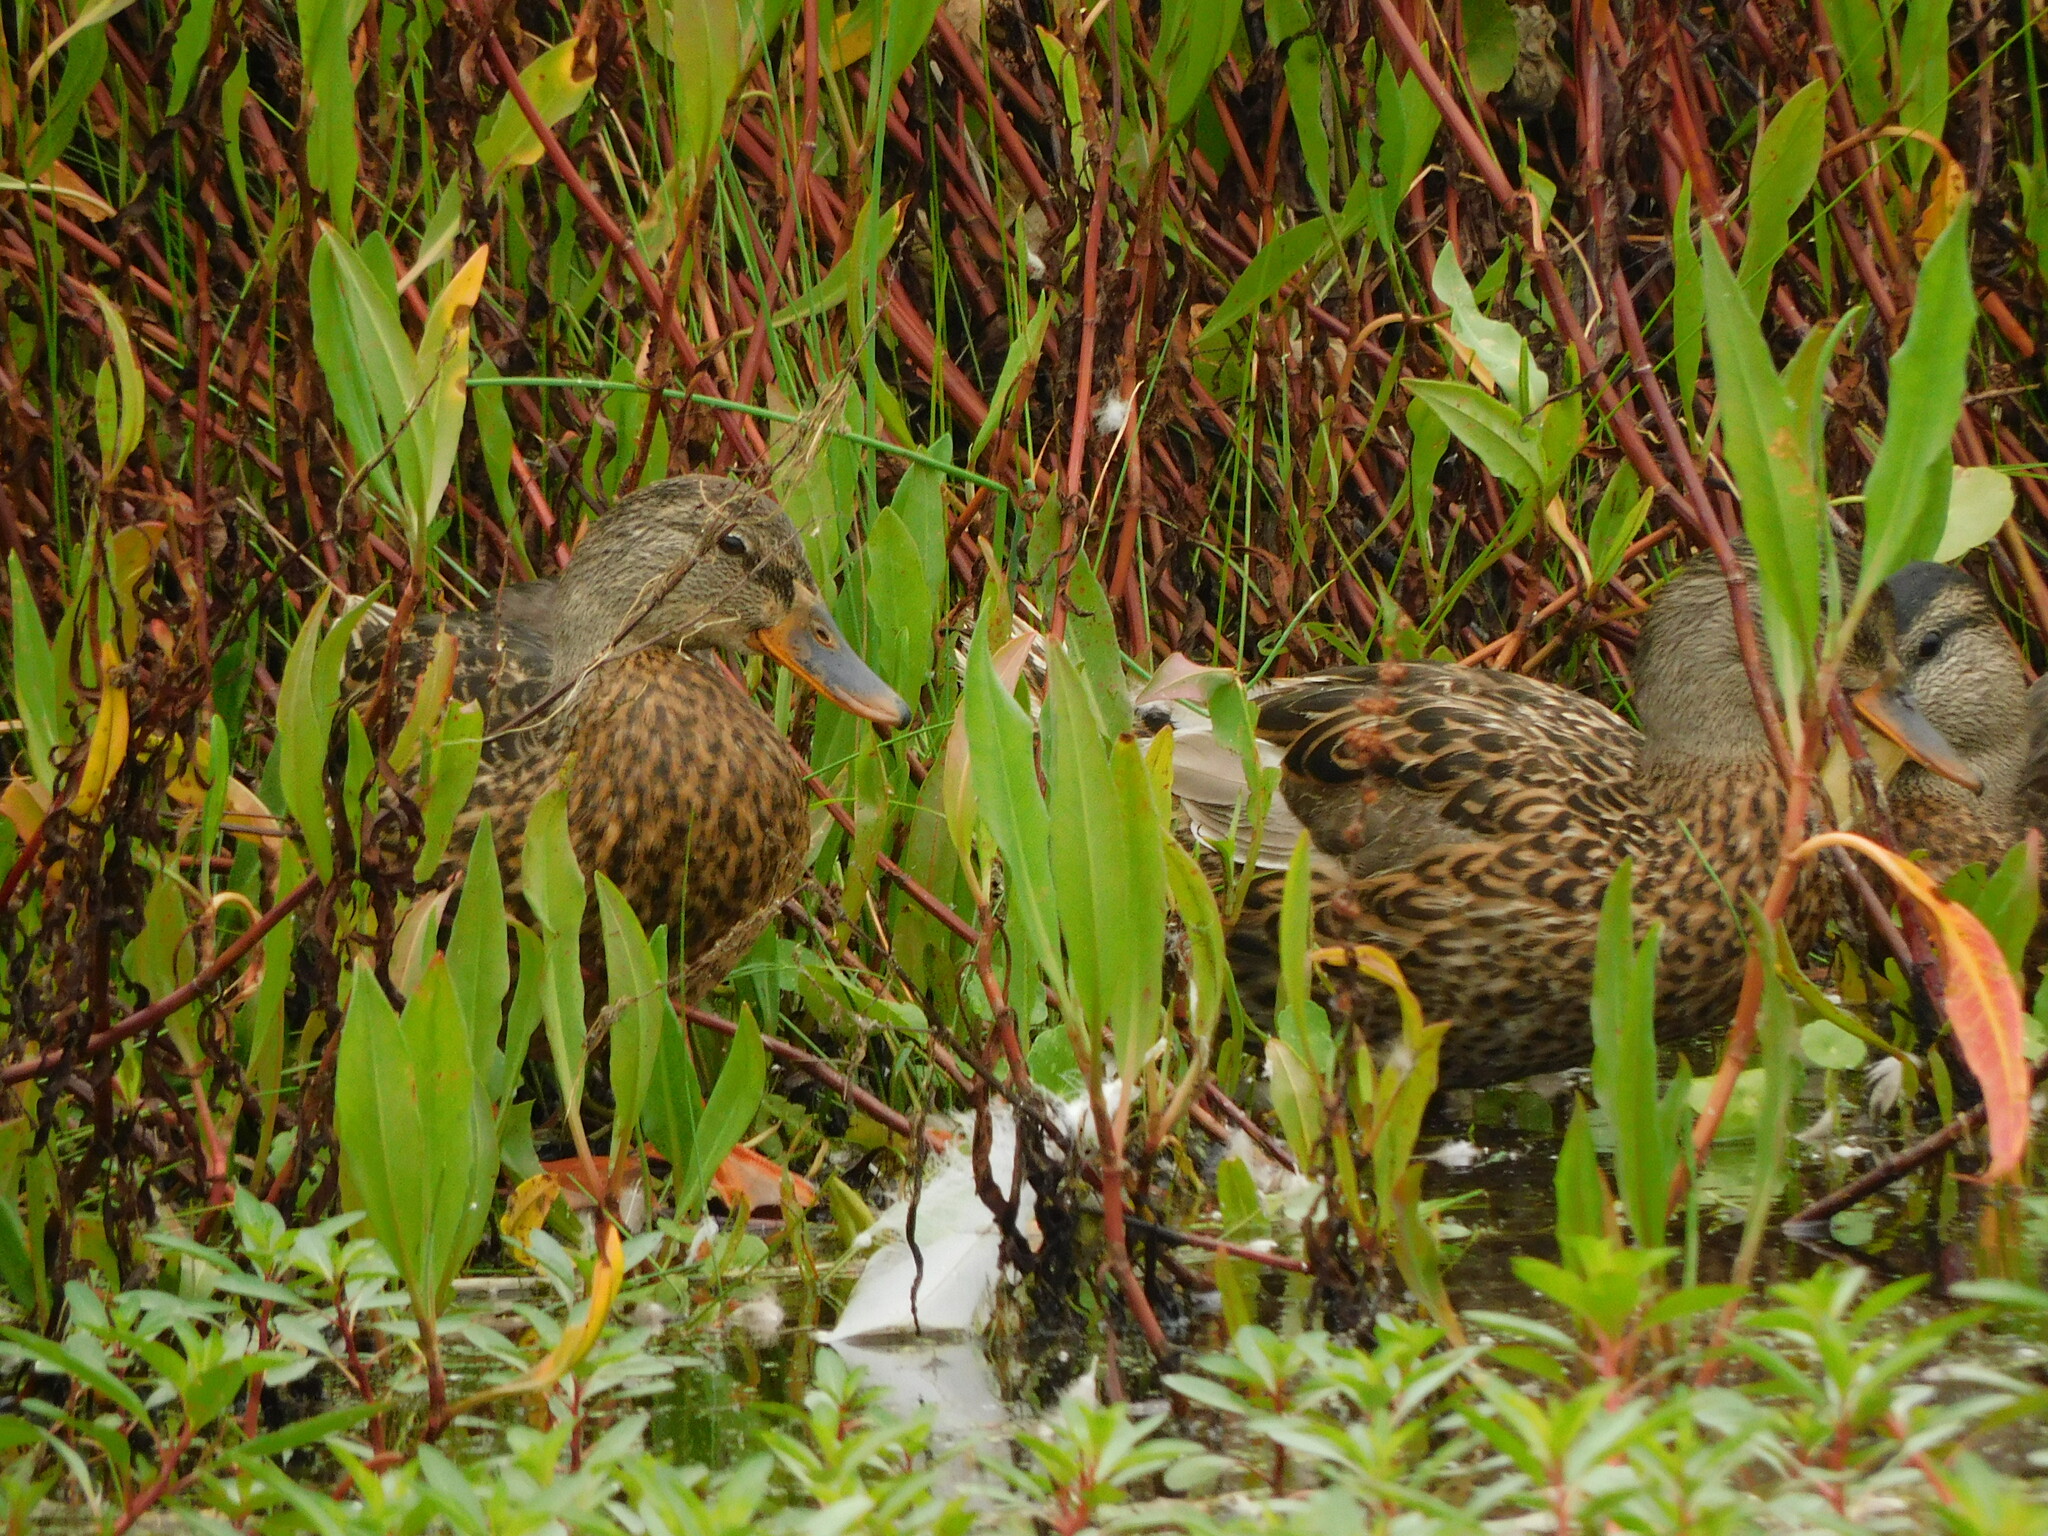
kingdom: Animalia
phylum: Chordata
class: Aves
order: Anseriformes
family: Anatidae
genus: Anas
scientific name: Anas platyrhynchos
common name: Mallard
